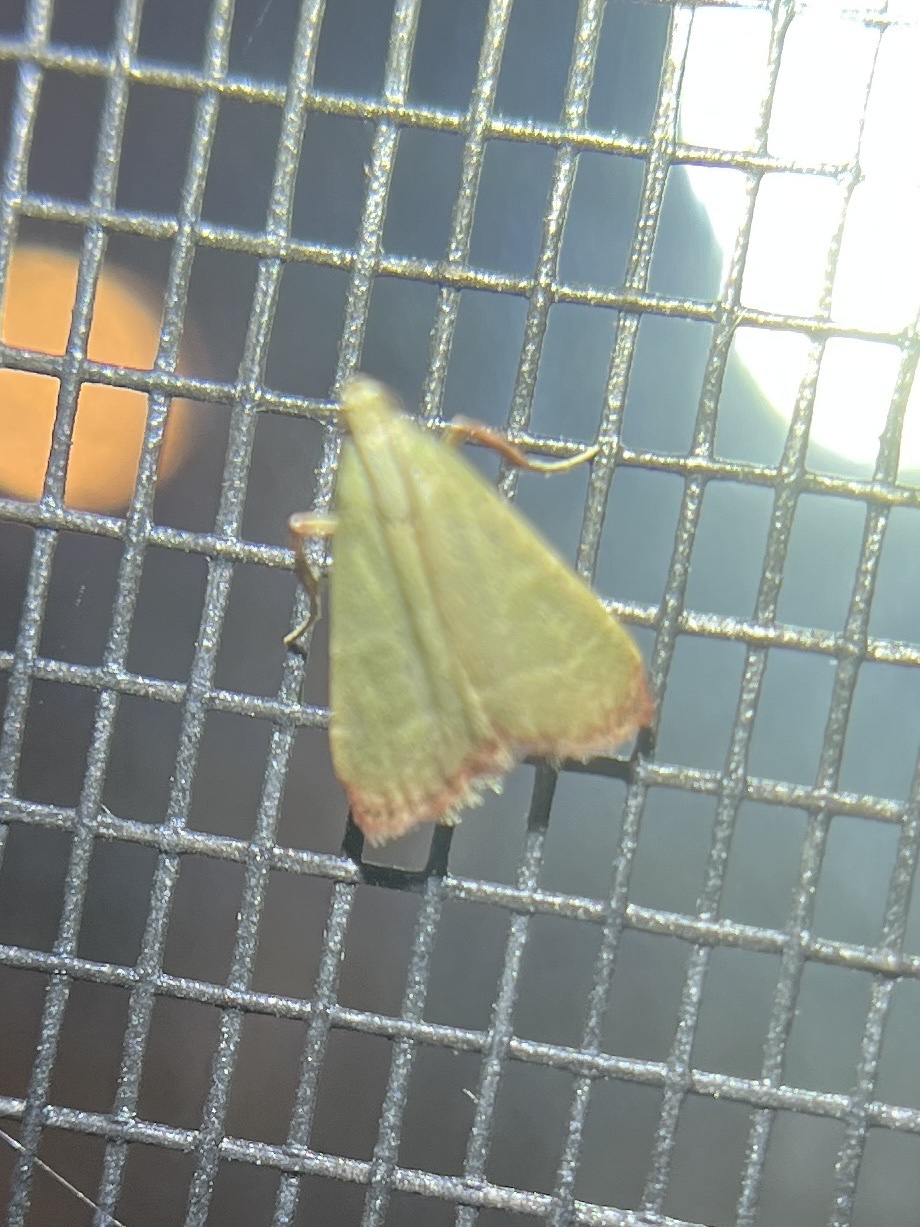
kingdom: Animalia
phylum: Arthropoda
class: Insecta
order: Lepidoptera
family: Pyralidae
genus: Arta
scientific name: Arta olivalis
